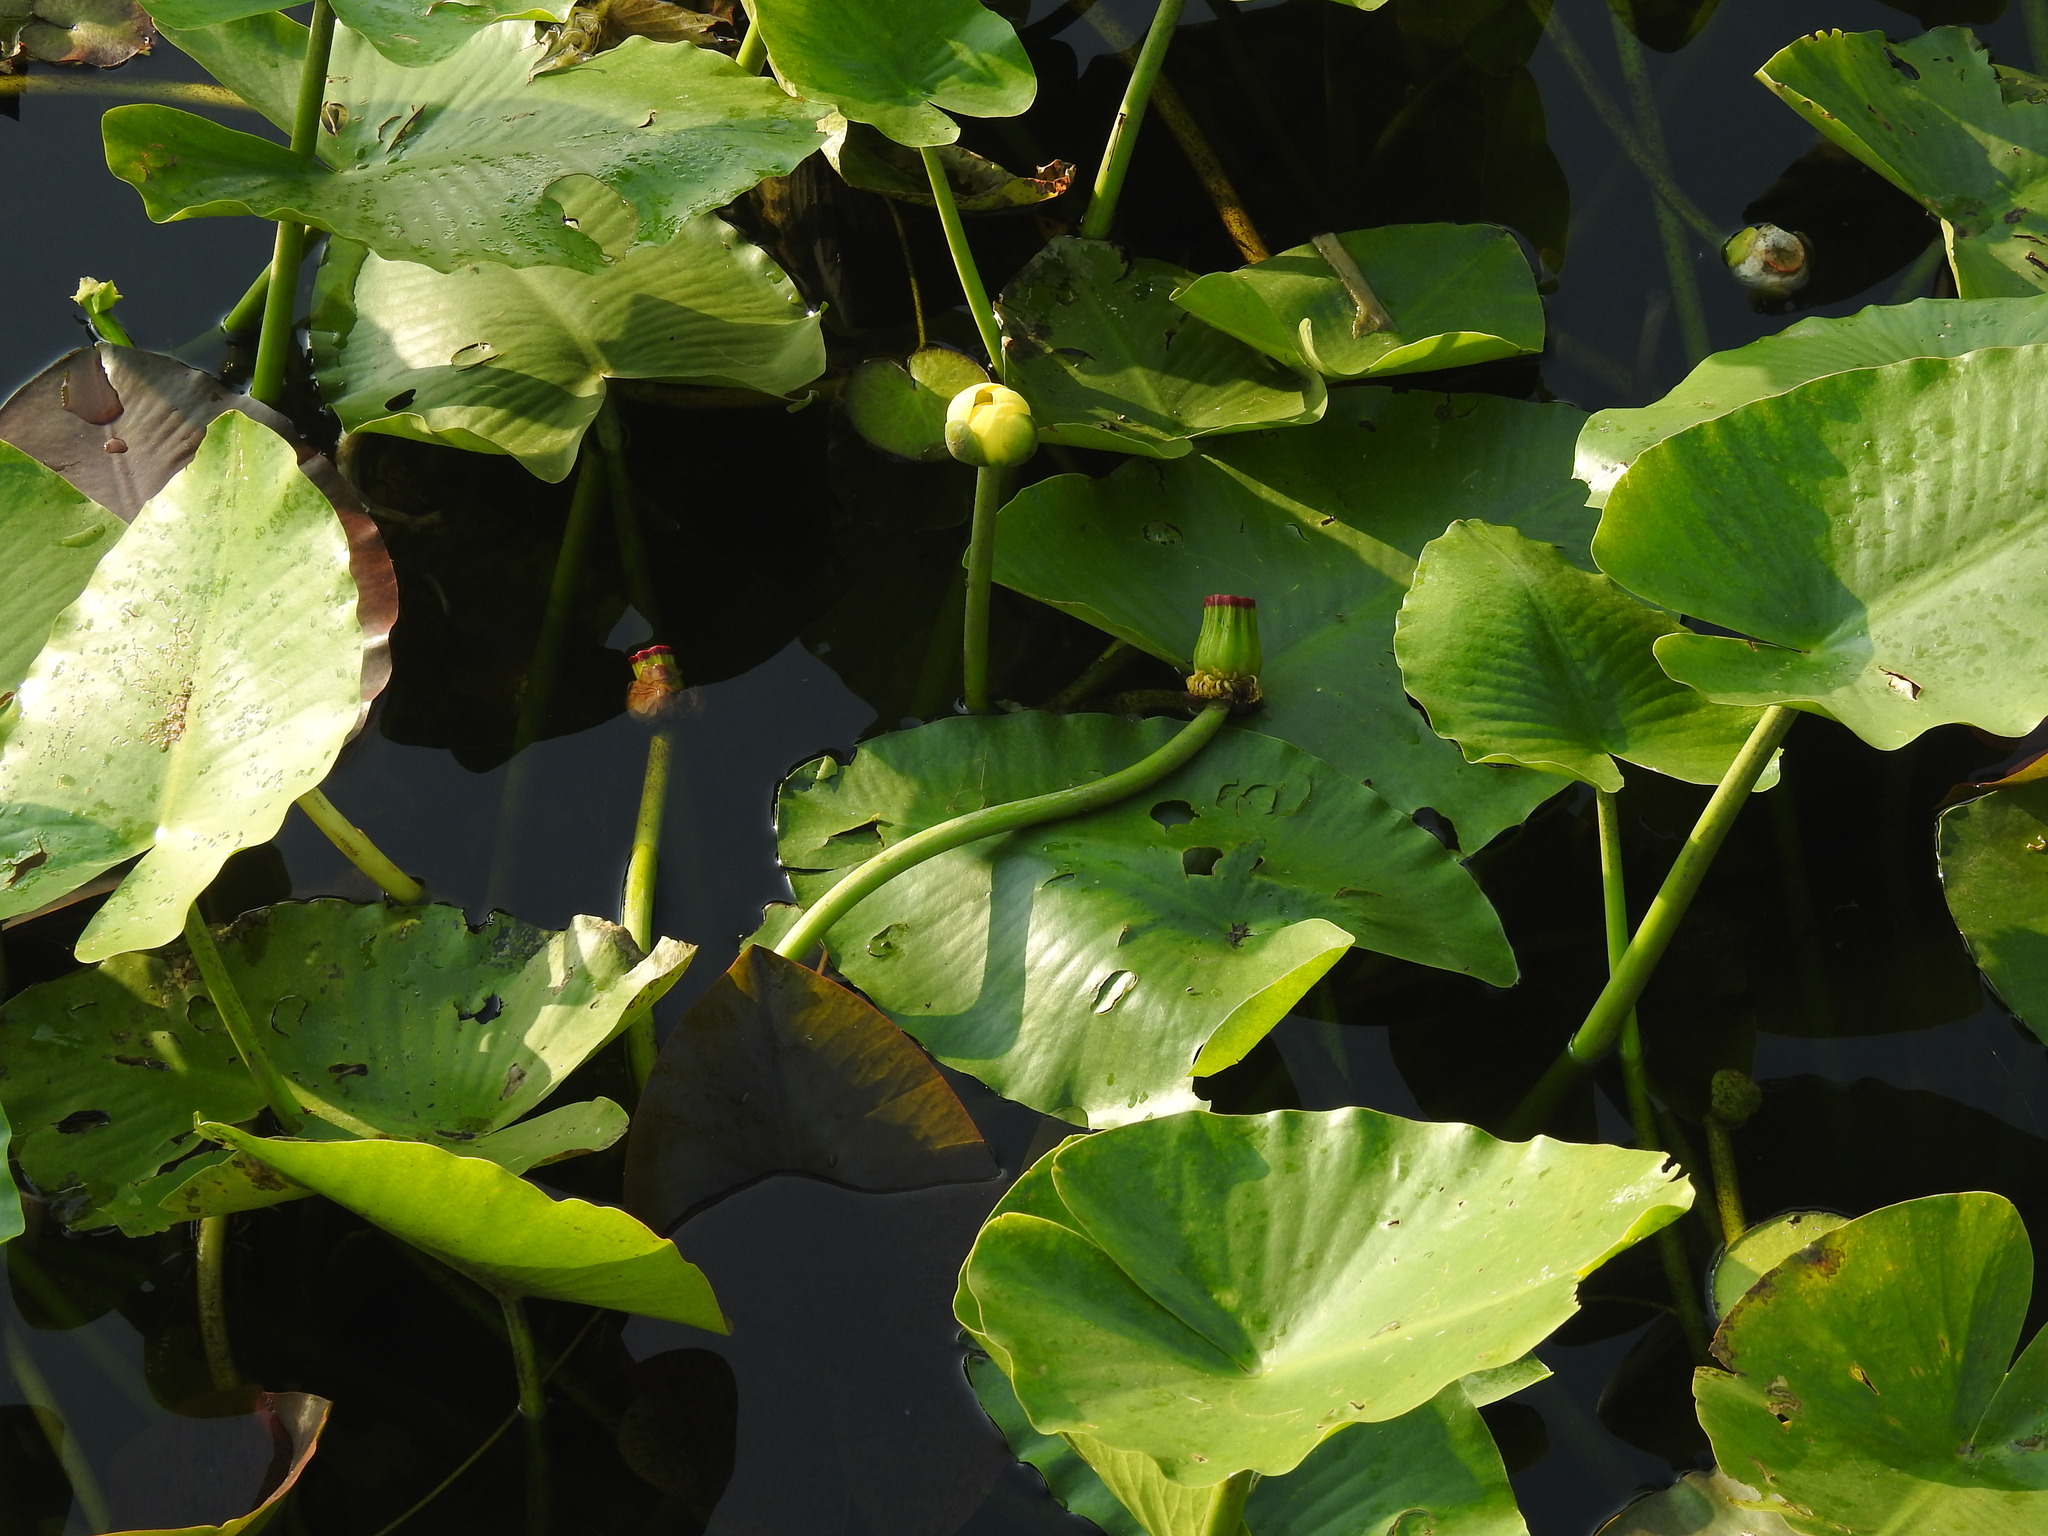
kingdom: Plantae
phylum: Tracheophyta
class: Magnoliopsida
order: Nymphaeales
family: Nymphaeaceae
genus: Nuphar
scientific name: Nuphar advena
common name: Spatter-dock
